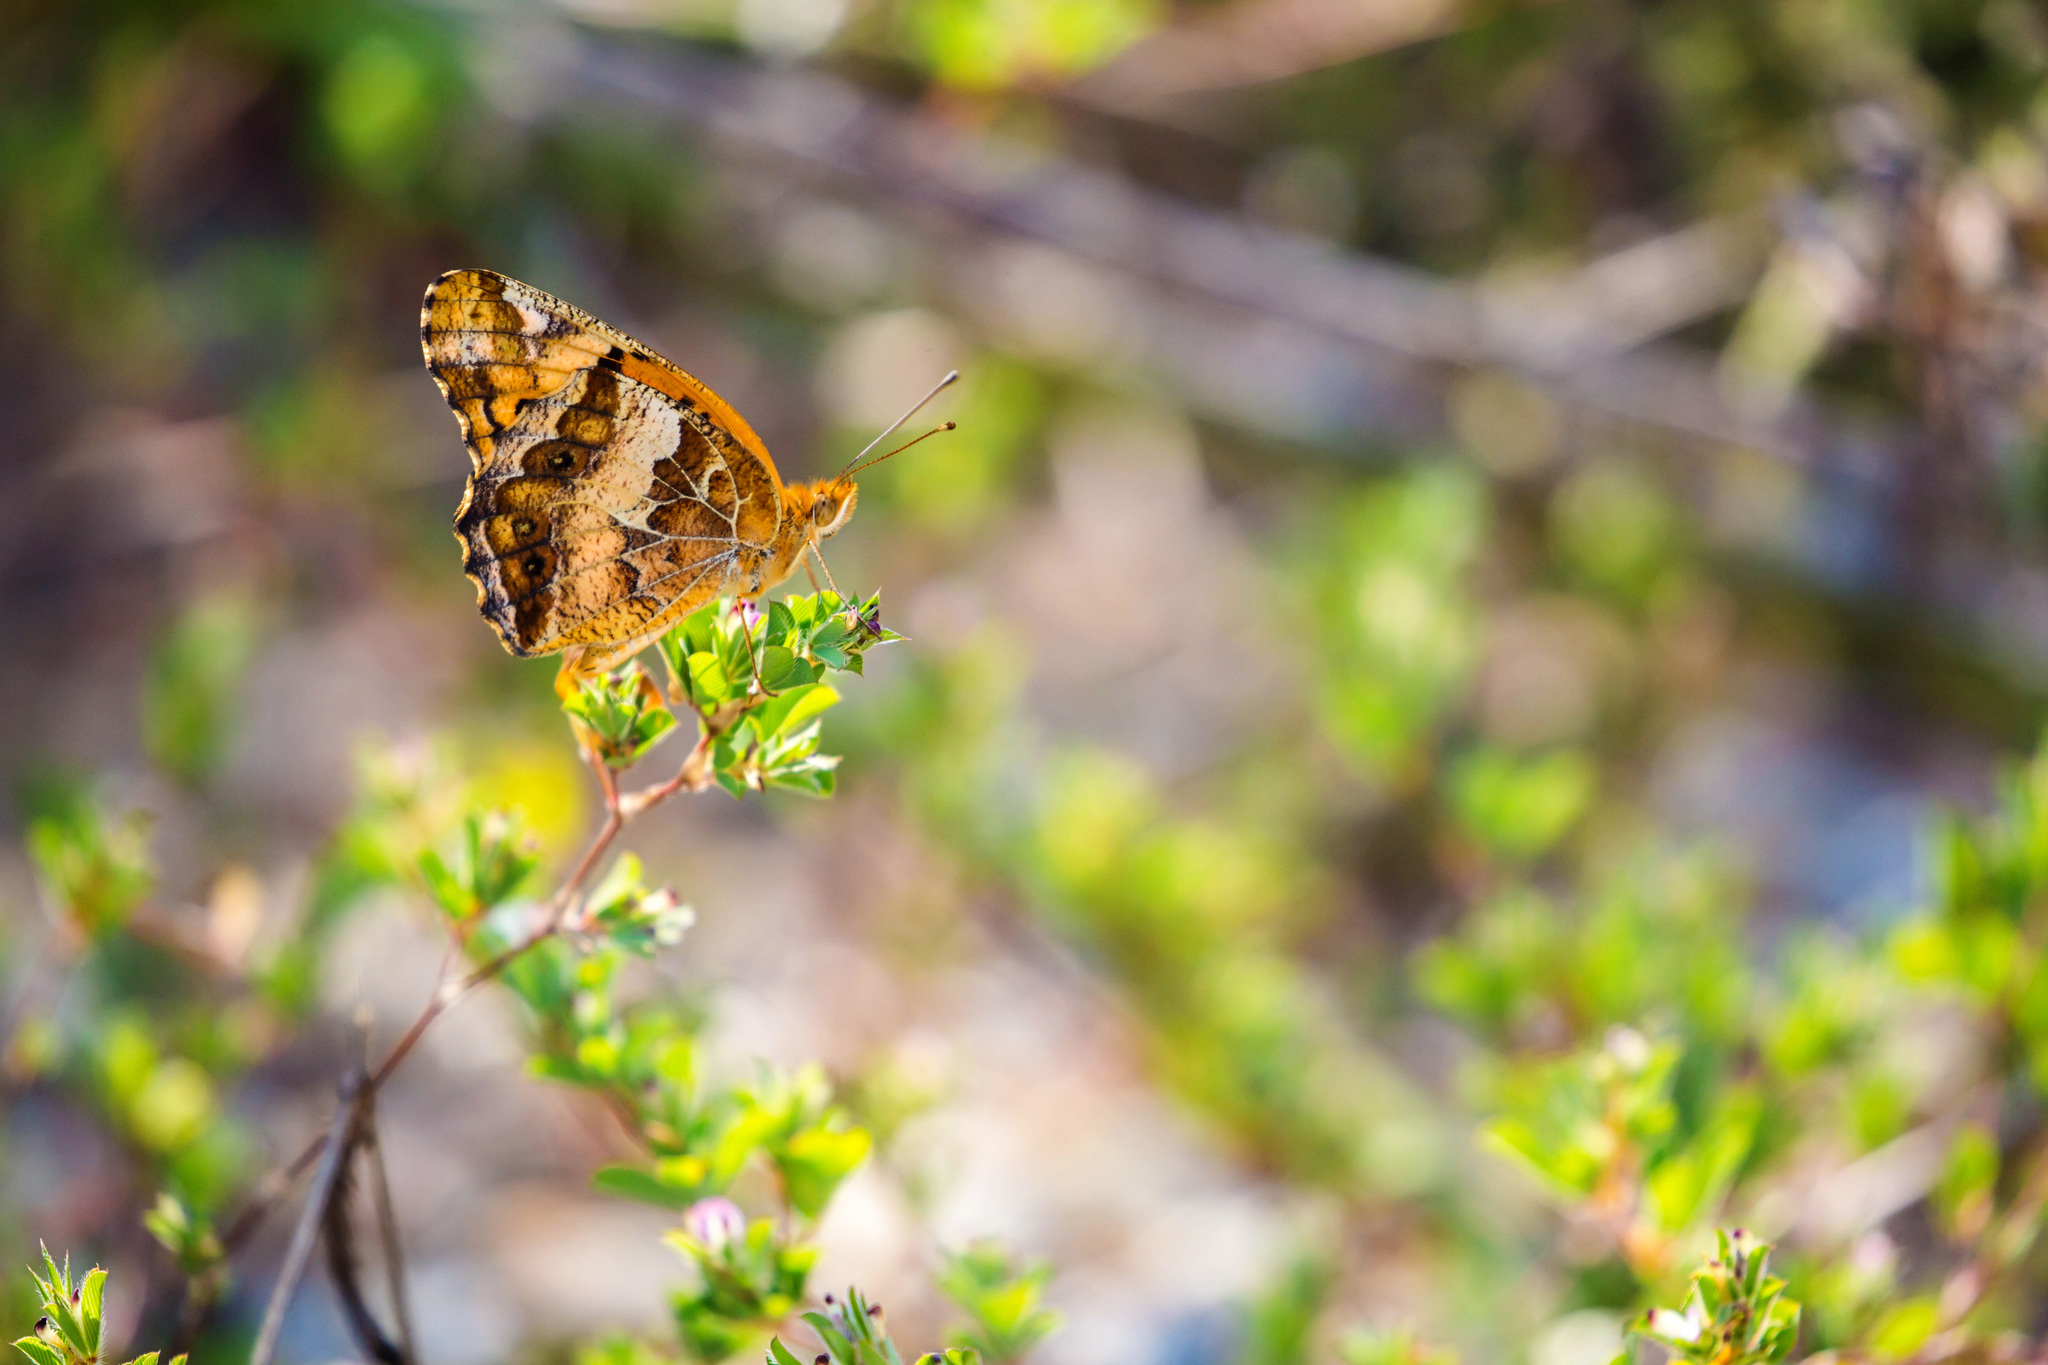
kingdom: Animalia
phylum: Arthropoda
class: Insecta
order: Lepidoptera
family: Nymphalidae
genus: Euptoieta
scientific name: Euptoieta claudia
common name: Variegated fritillary
